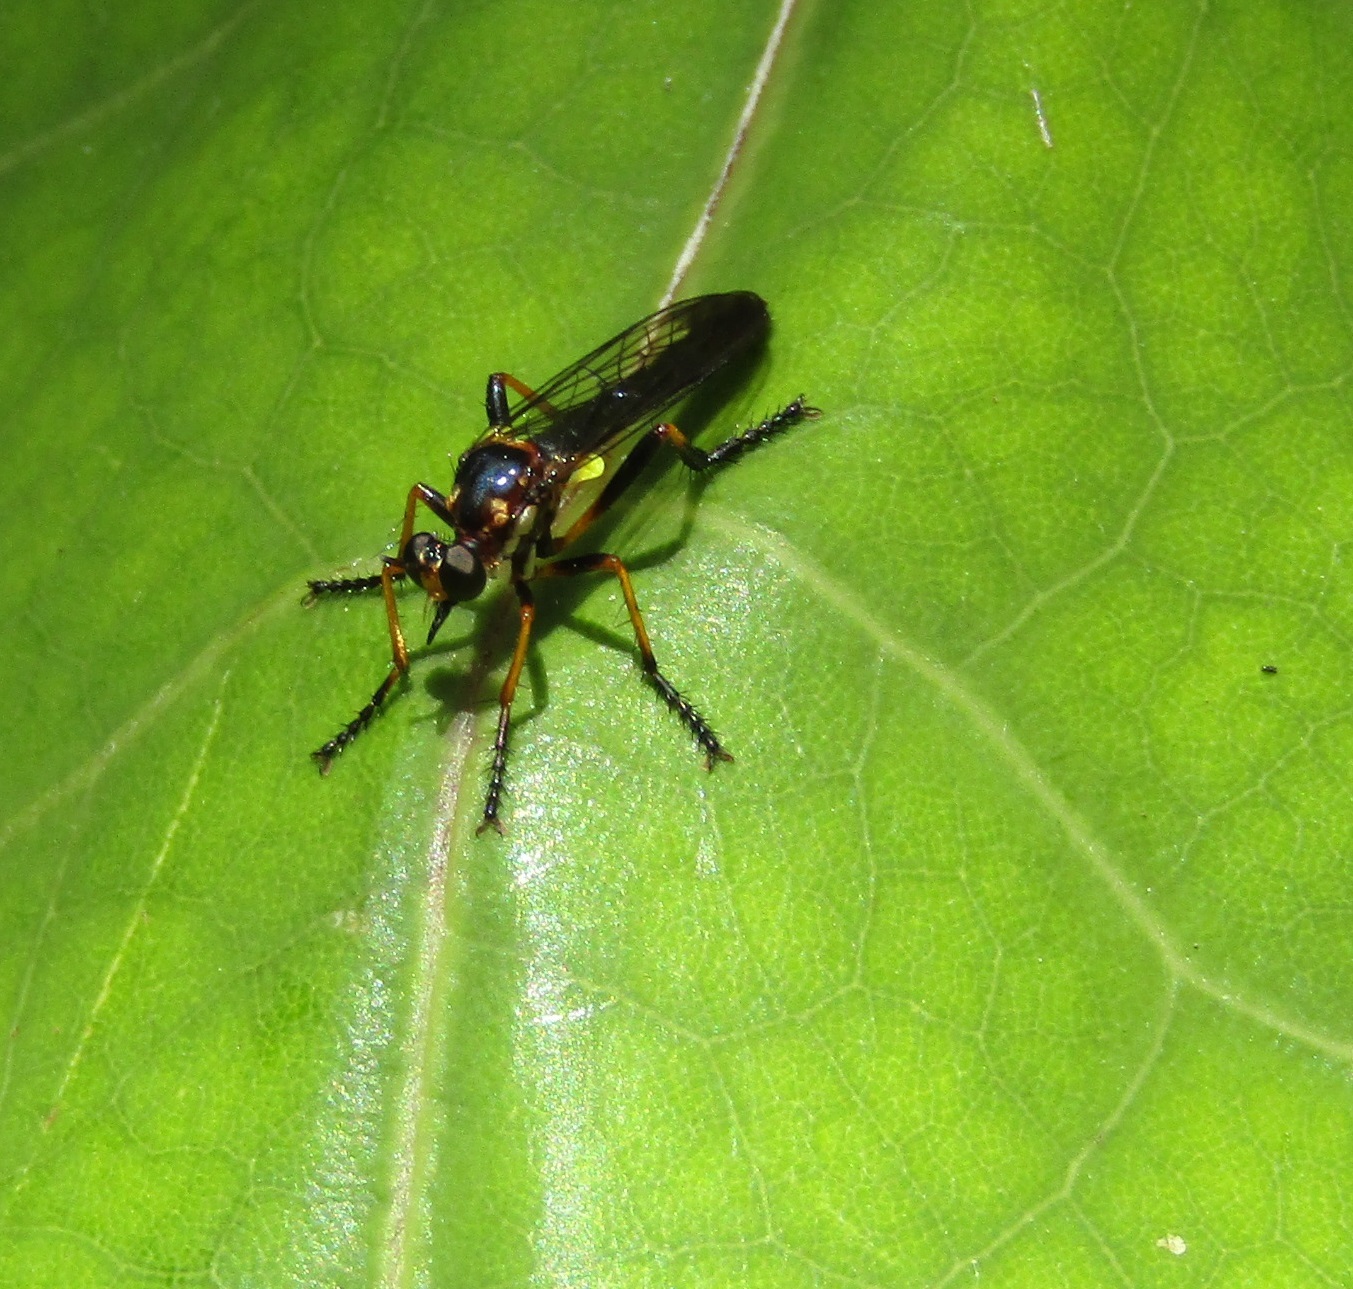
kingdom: Animalia
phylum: Arthropoda
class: Insecta
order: Diptera
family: Asilidae
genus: Saropogon
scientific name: Saropogon fascipes
